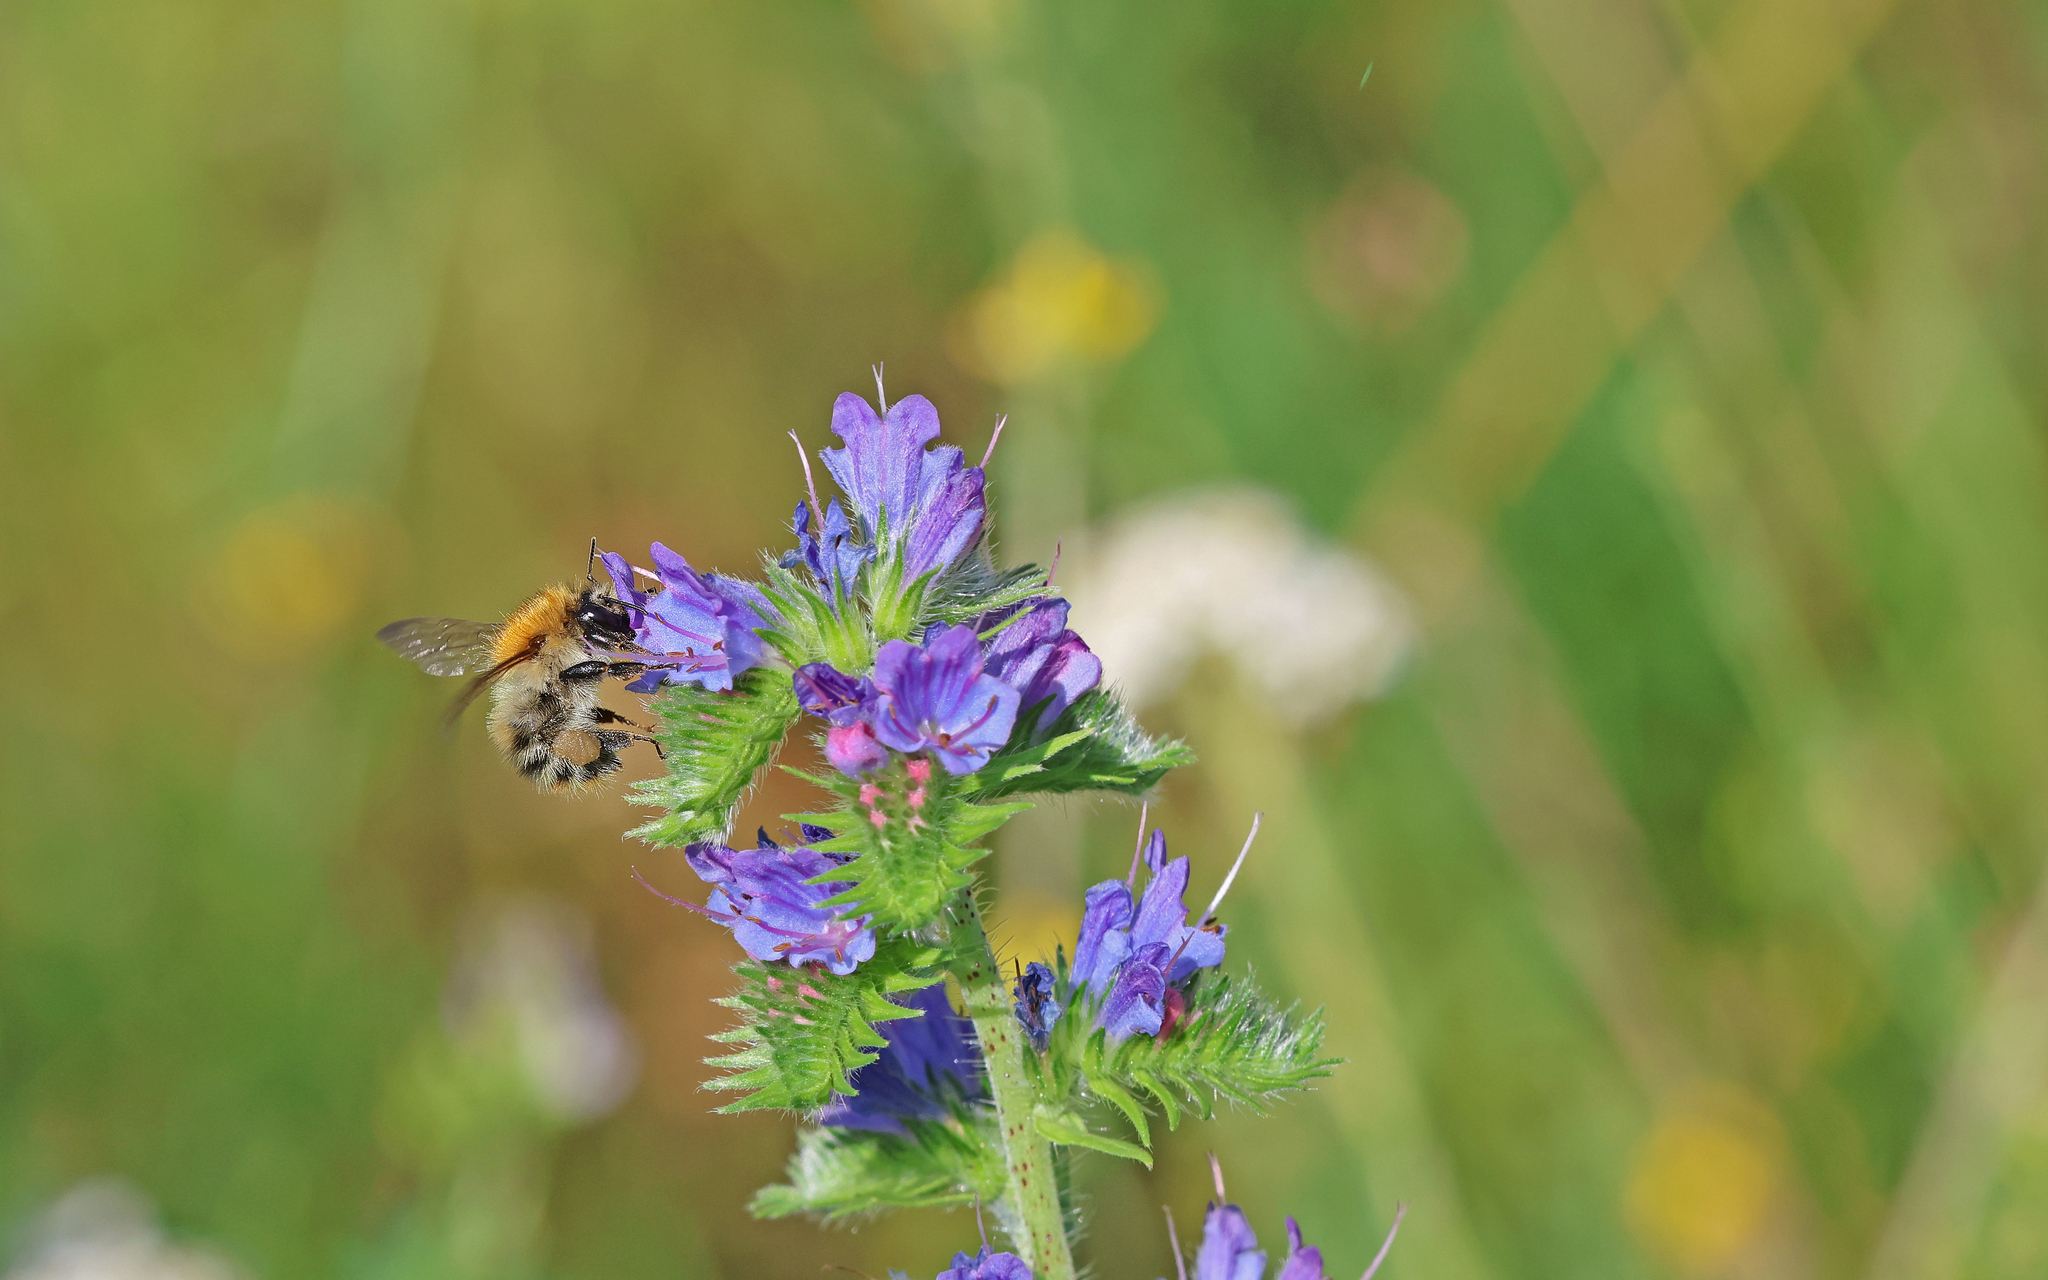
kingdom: Animalia
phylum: Arthropoda
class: Insecta
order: Hymenoptera
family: Apidae
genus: Bombus
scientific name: Bombus pascuorum
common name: Common carder bee
